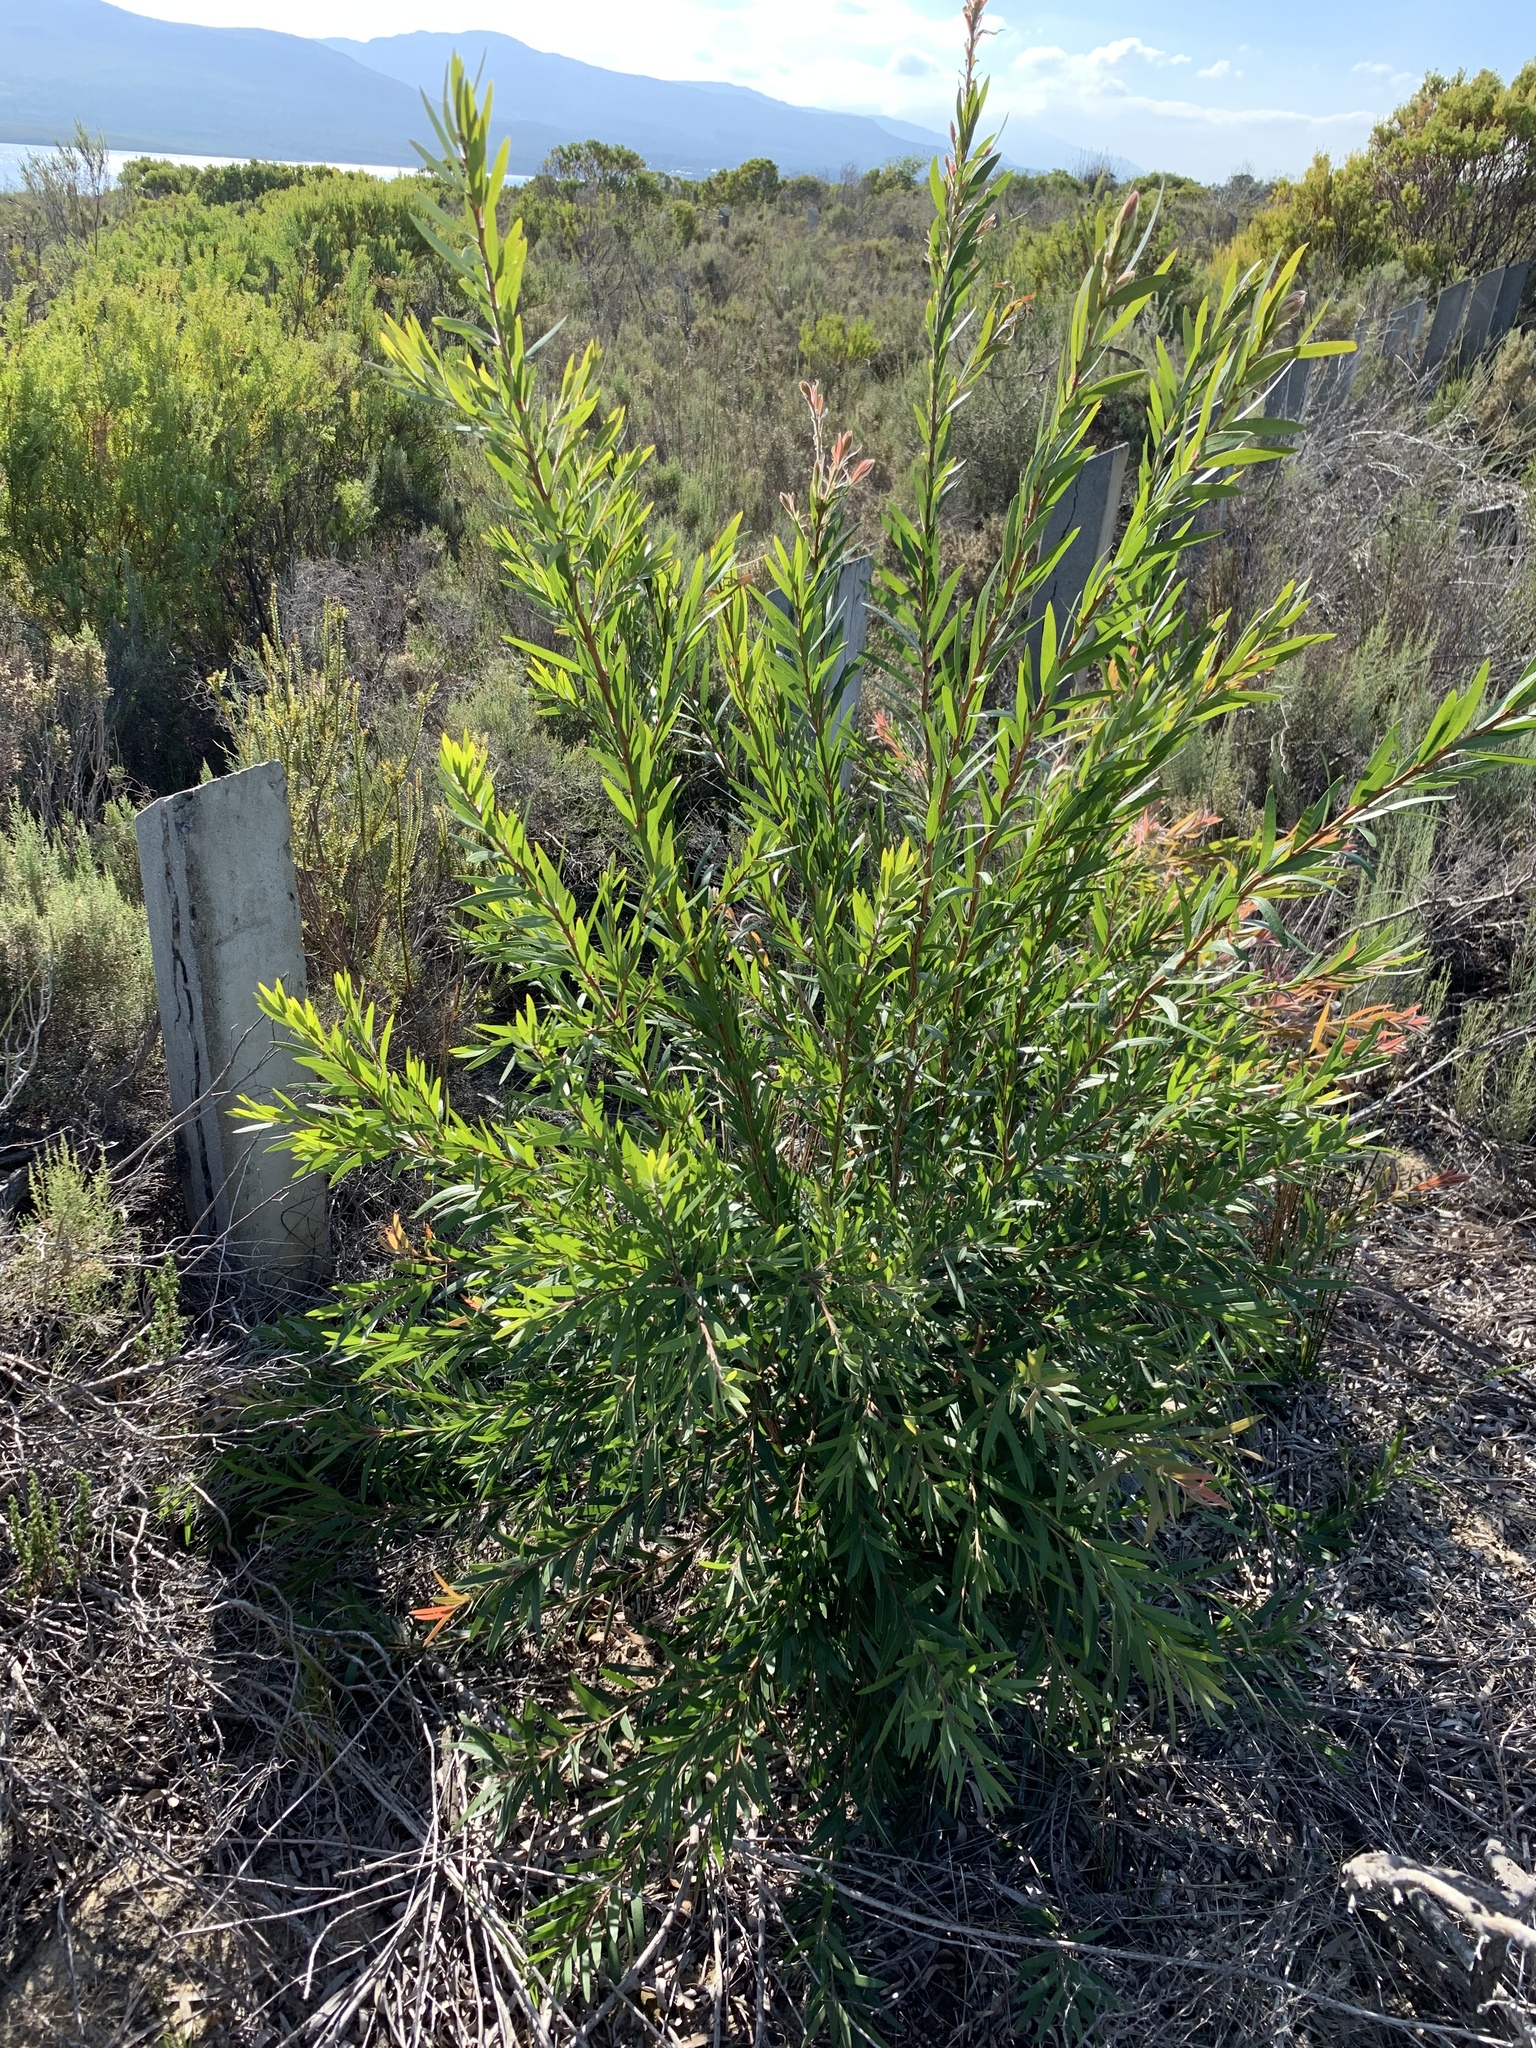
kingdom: Plantae
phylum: Tracheophyta
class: Magnoliopsida
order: Myrtales
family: Myrtaceae
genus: Callistemon
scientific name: Callistemon viminalis
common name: Drooping bottlebrush
